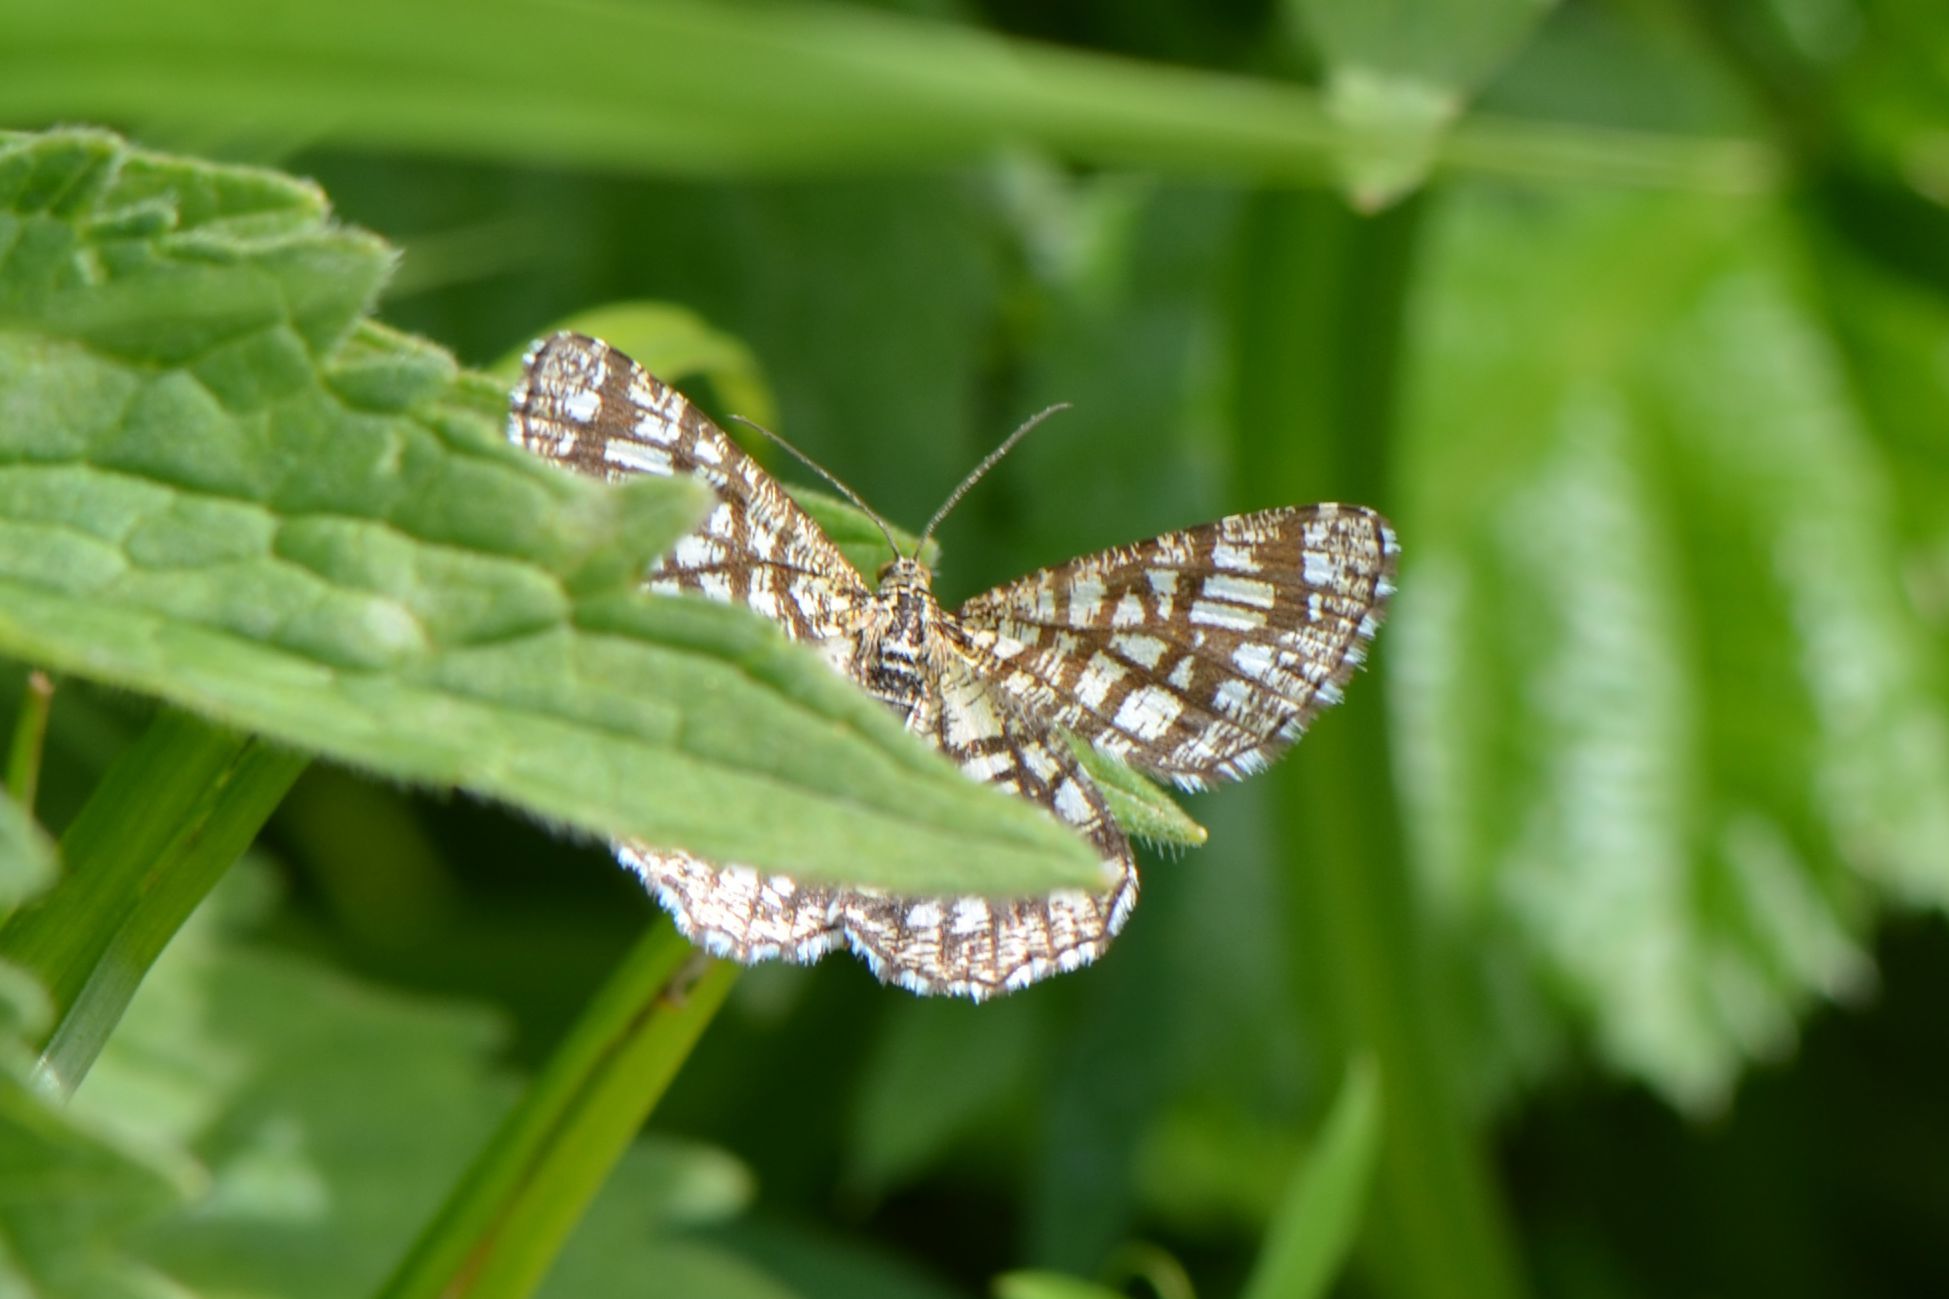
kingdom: Animalia
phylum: Arthropoda
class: Insecta
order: Lepidoptera
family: Geometridae
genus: Chiasmia
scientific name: Chiasmia clathrata
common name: Latticed heath
